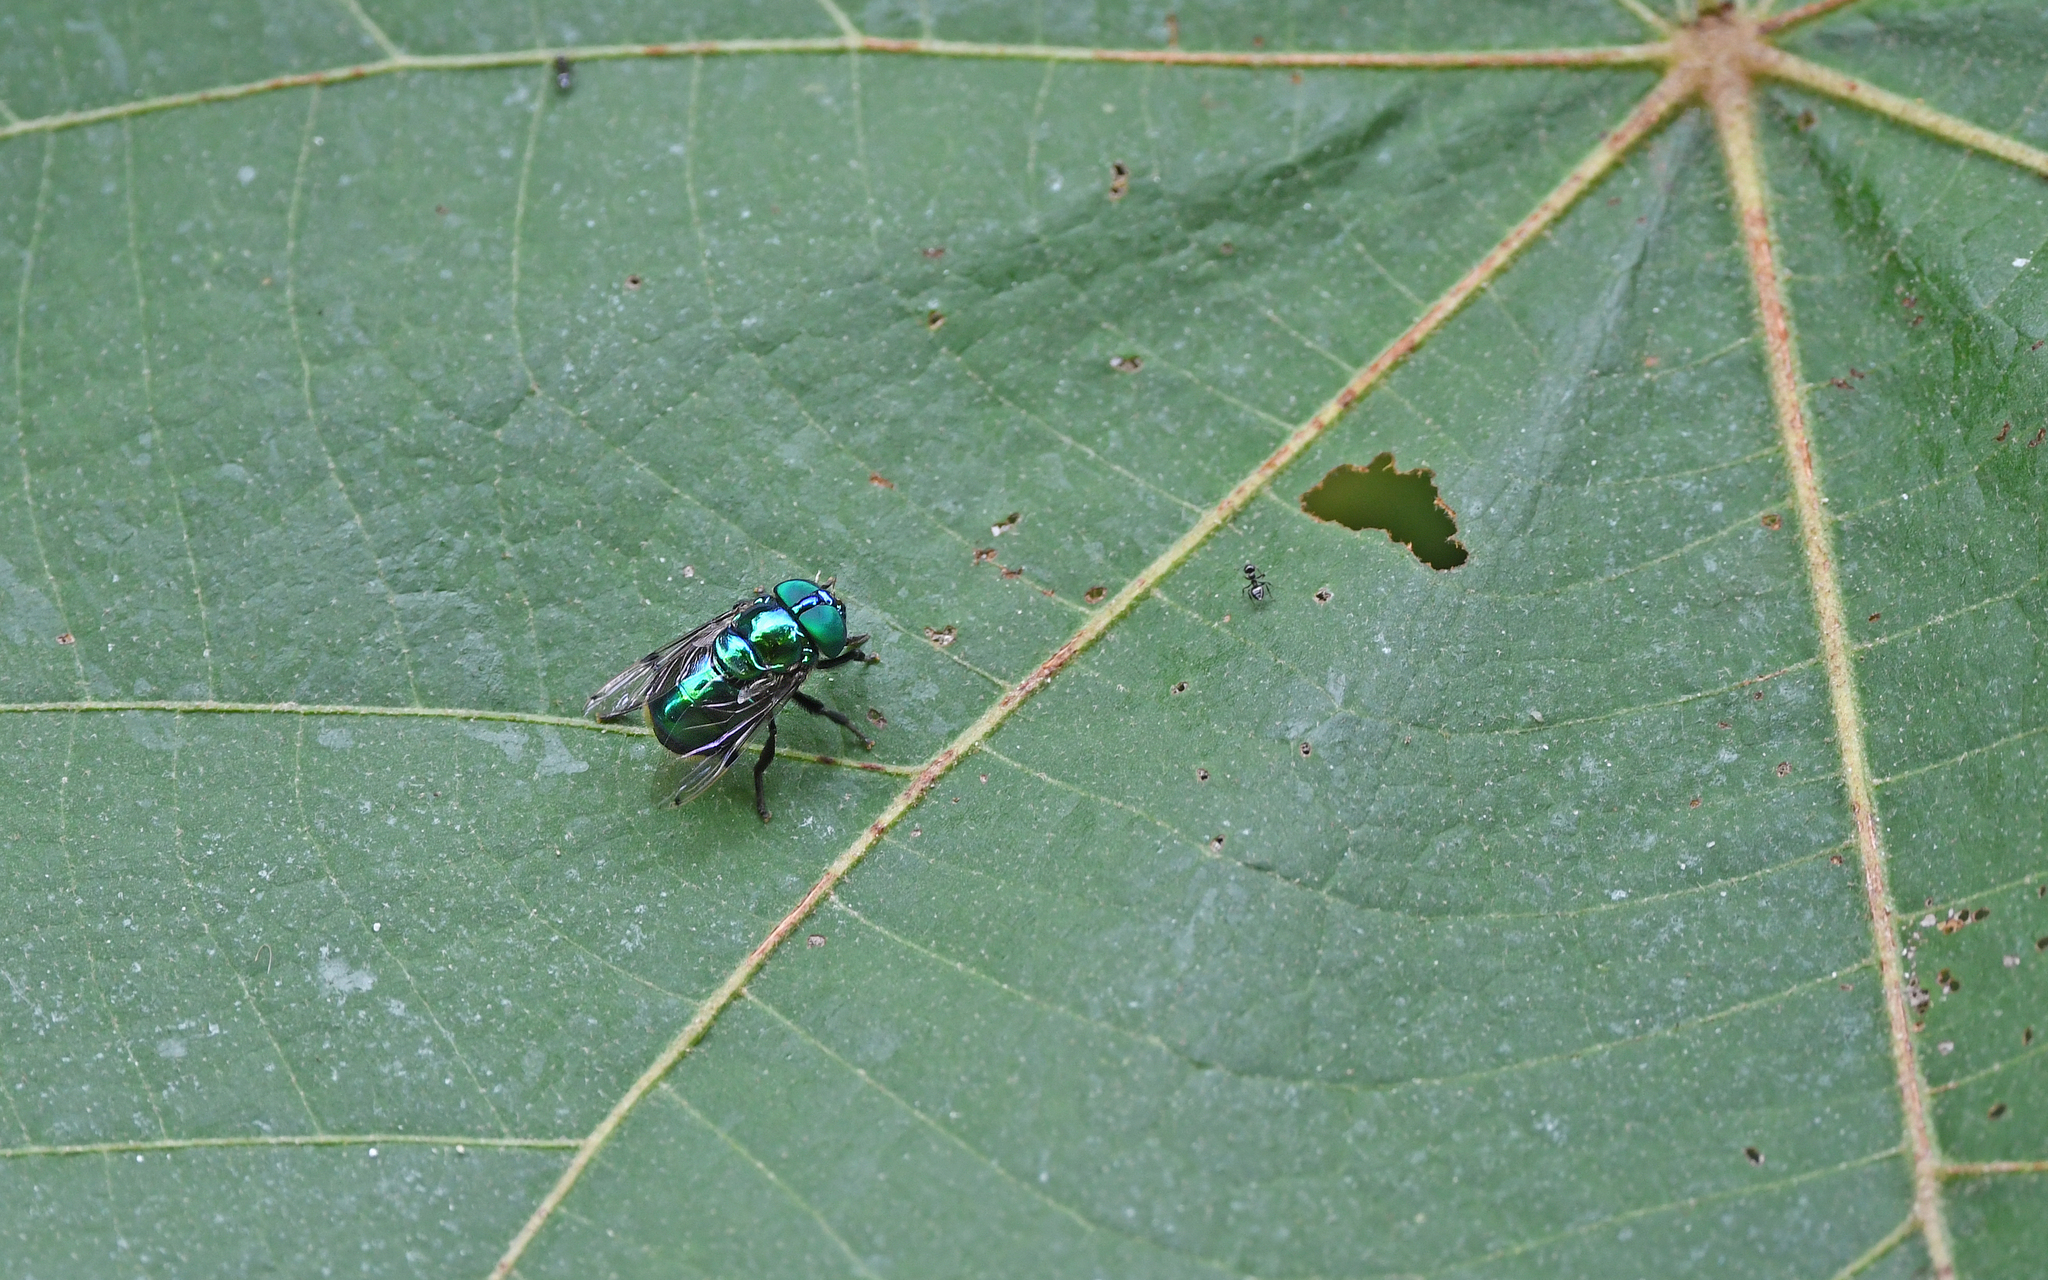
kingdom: Animalia
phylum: Arthropoda
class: Insecta
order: Diptera
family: Syrphidae
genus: Ornidia
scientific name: Ornidia major
